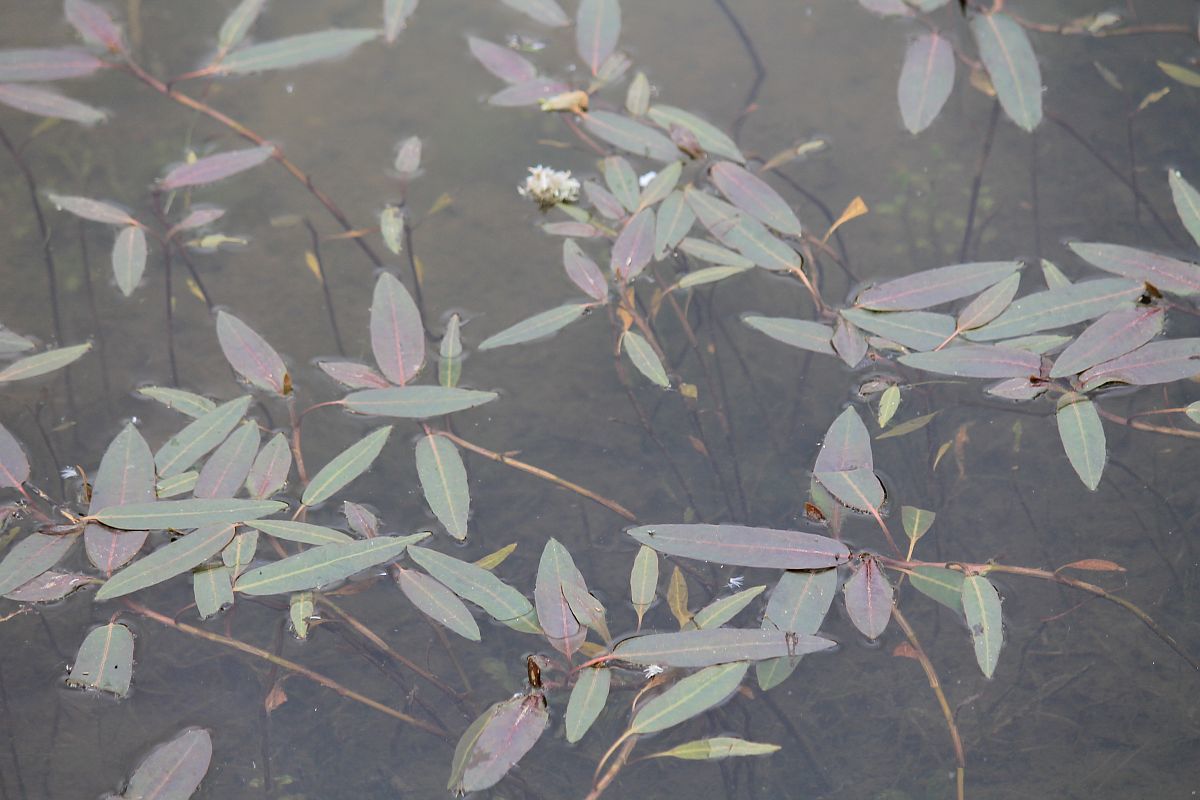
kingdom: Plantae
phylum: Tracheophyta
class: Magnoliopsida
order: Caryophyllales
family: Polygonaceae
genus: Persicaria
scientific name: Persicaria amphibia
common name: Amphibious bistort
